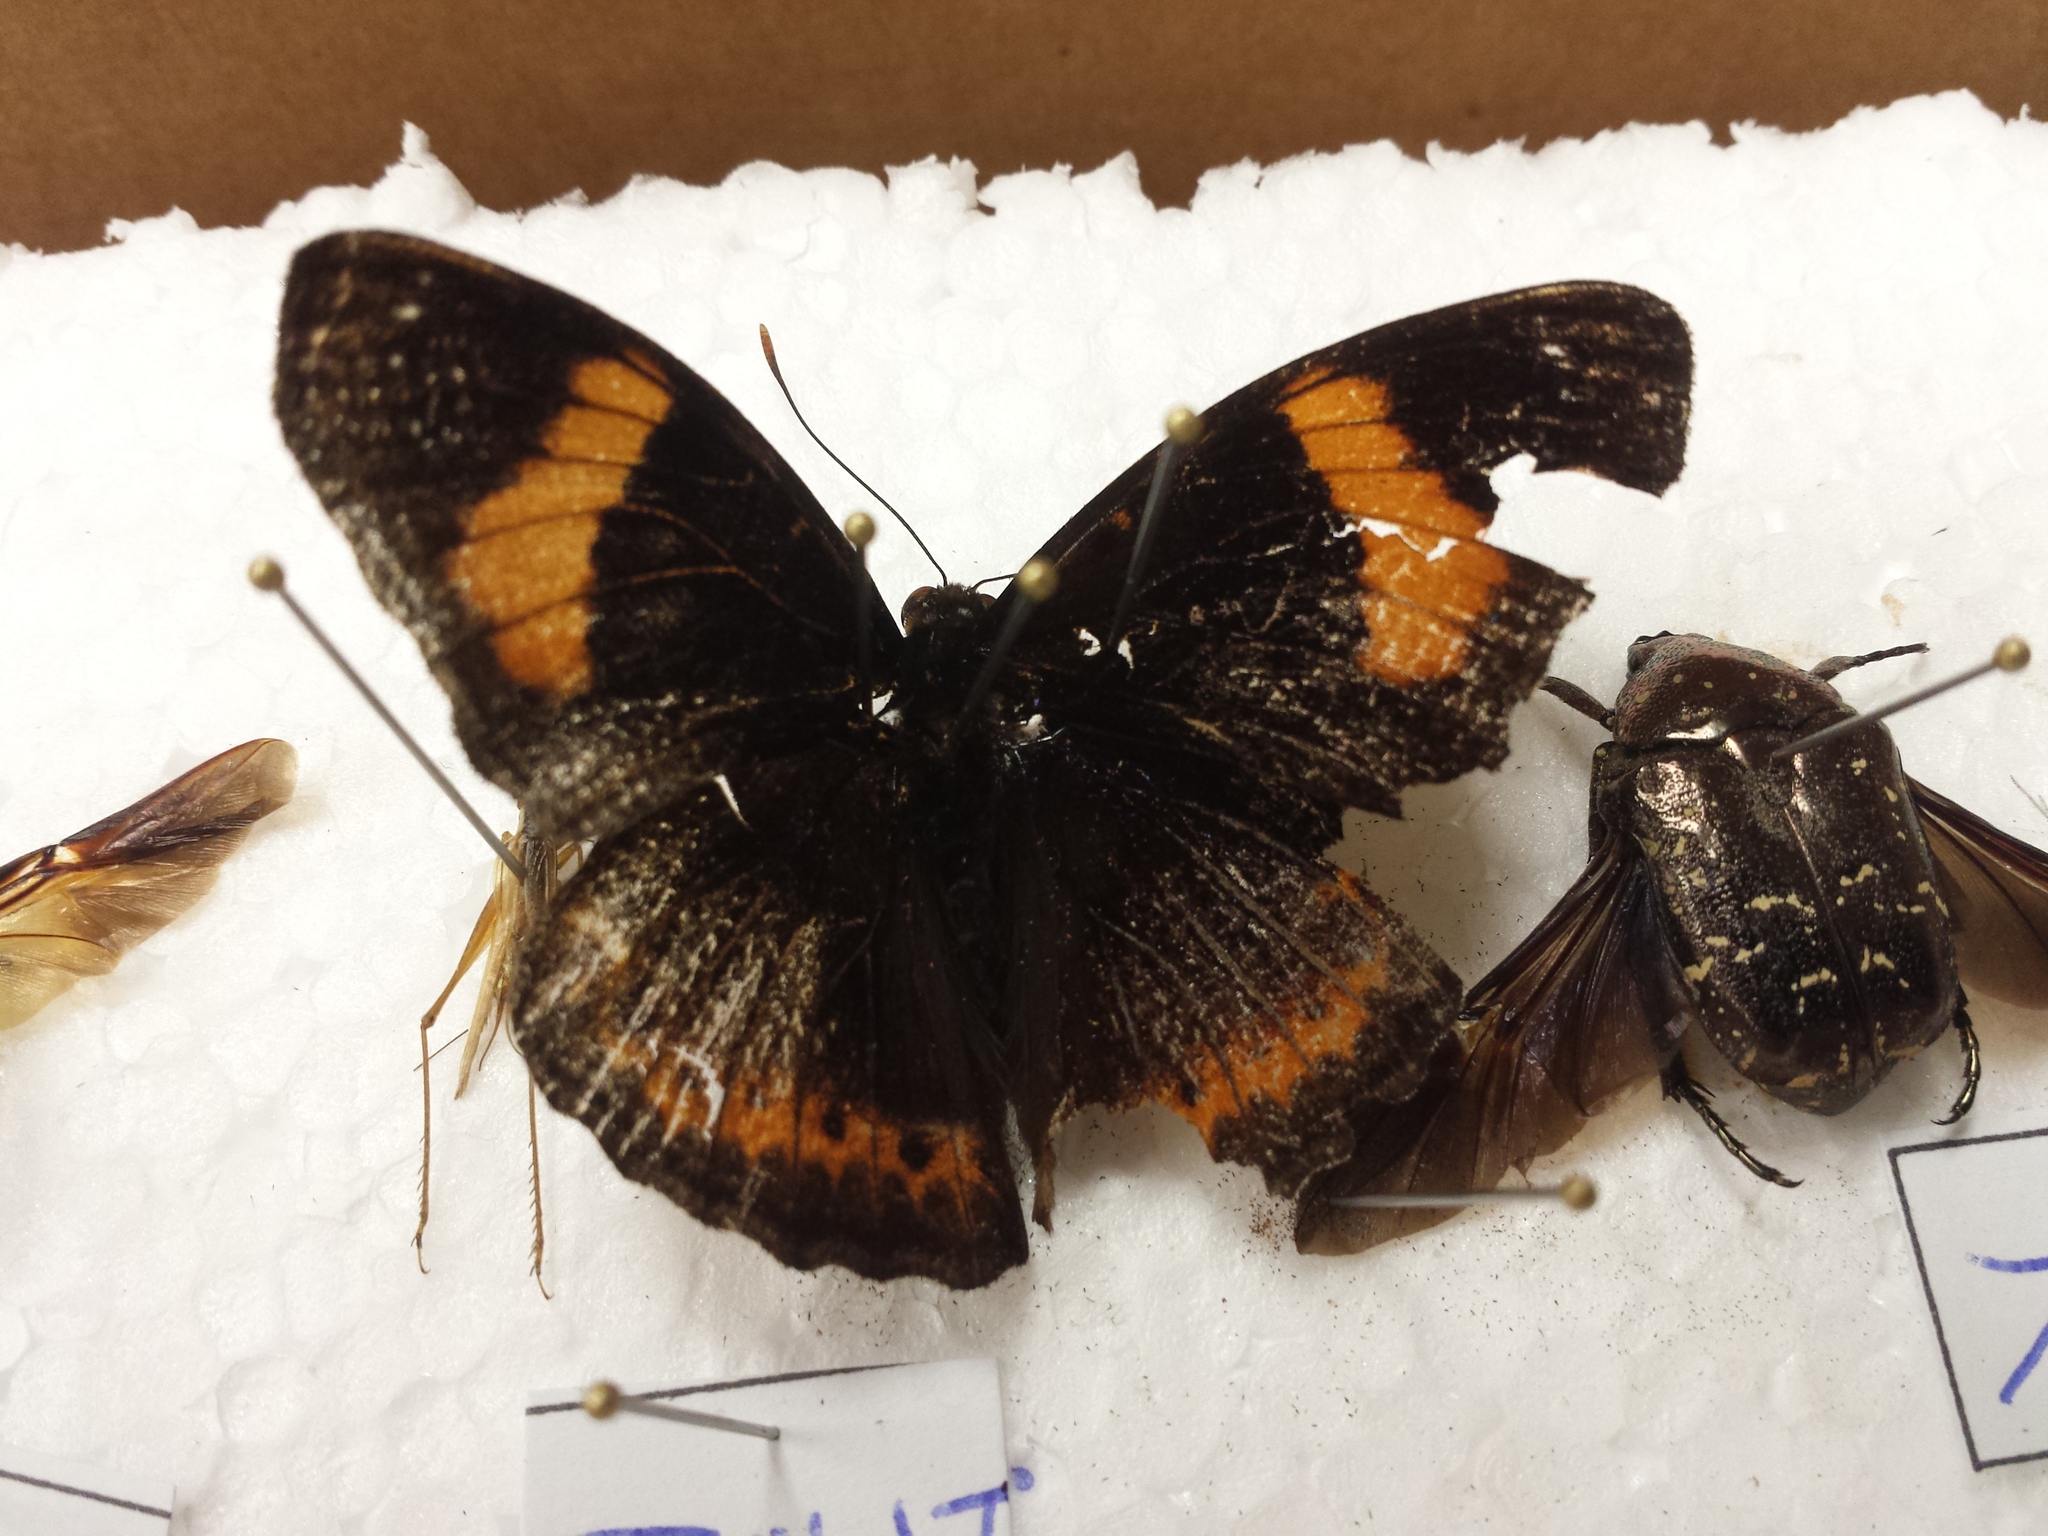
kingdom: Animalia
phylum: Arthropoda
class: Insecta
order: Lepidoptera
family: Nymphalidae
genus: Hypolimnas
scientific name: Hypolimnas octocula
